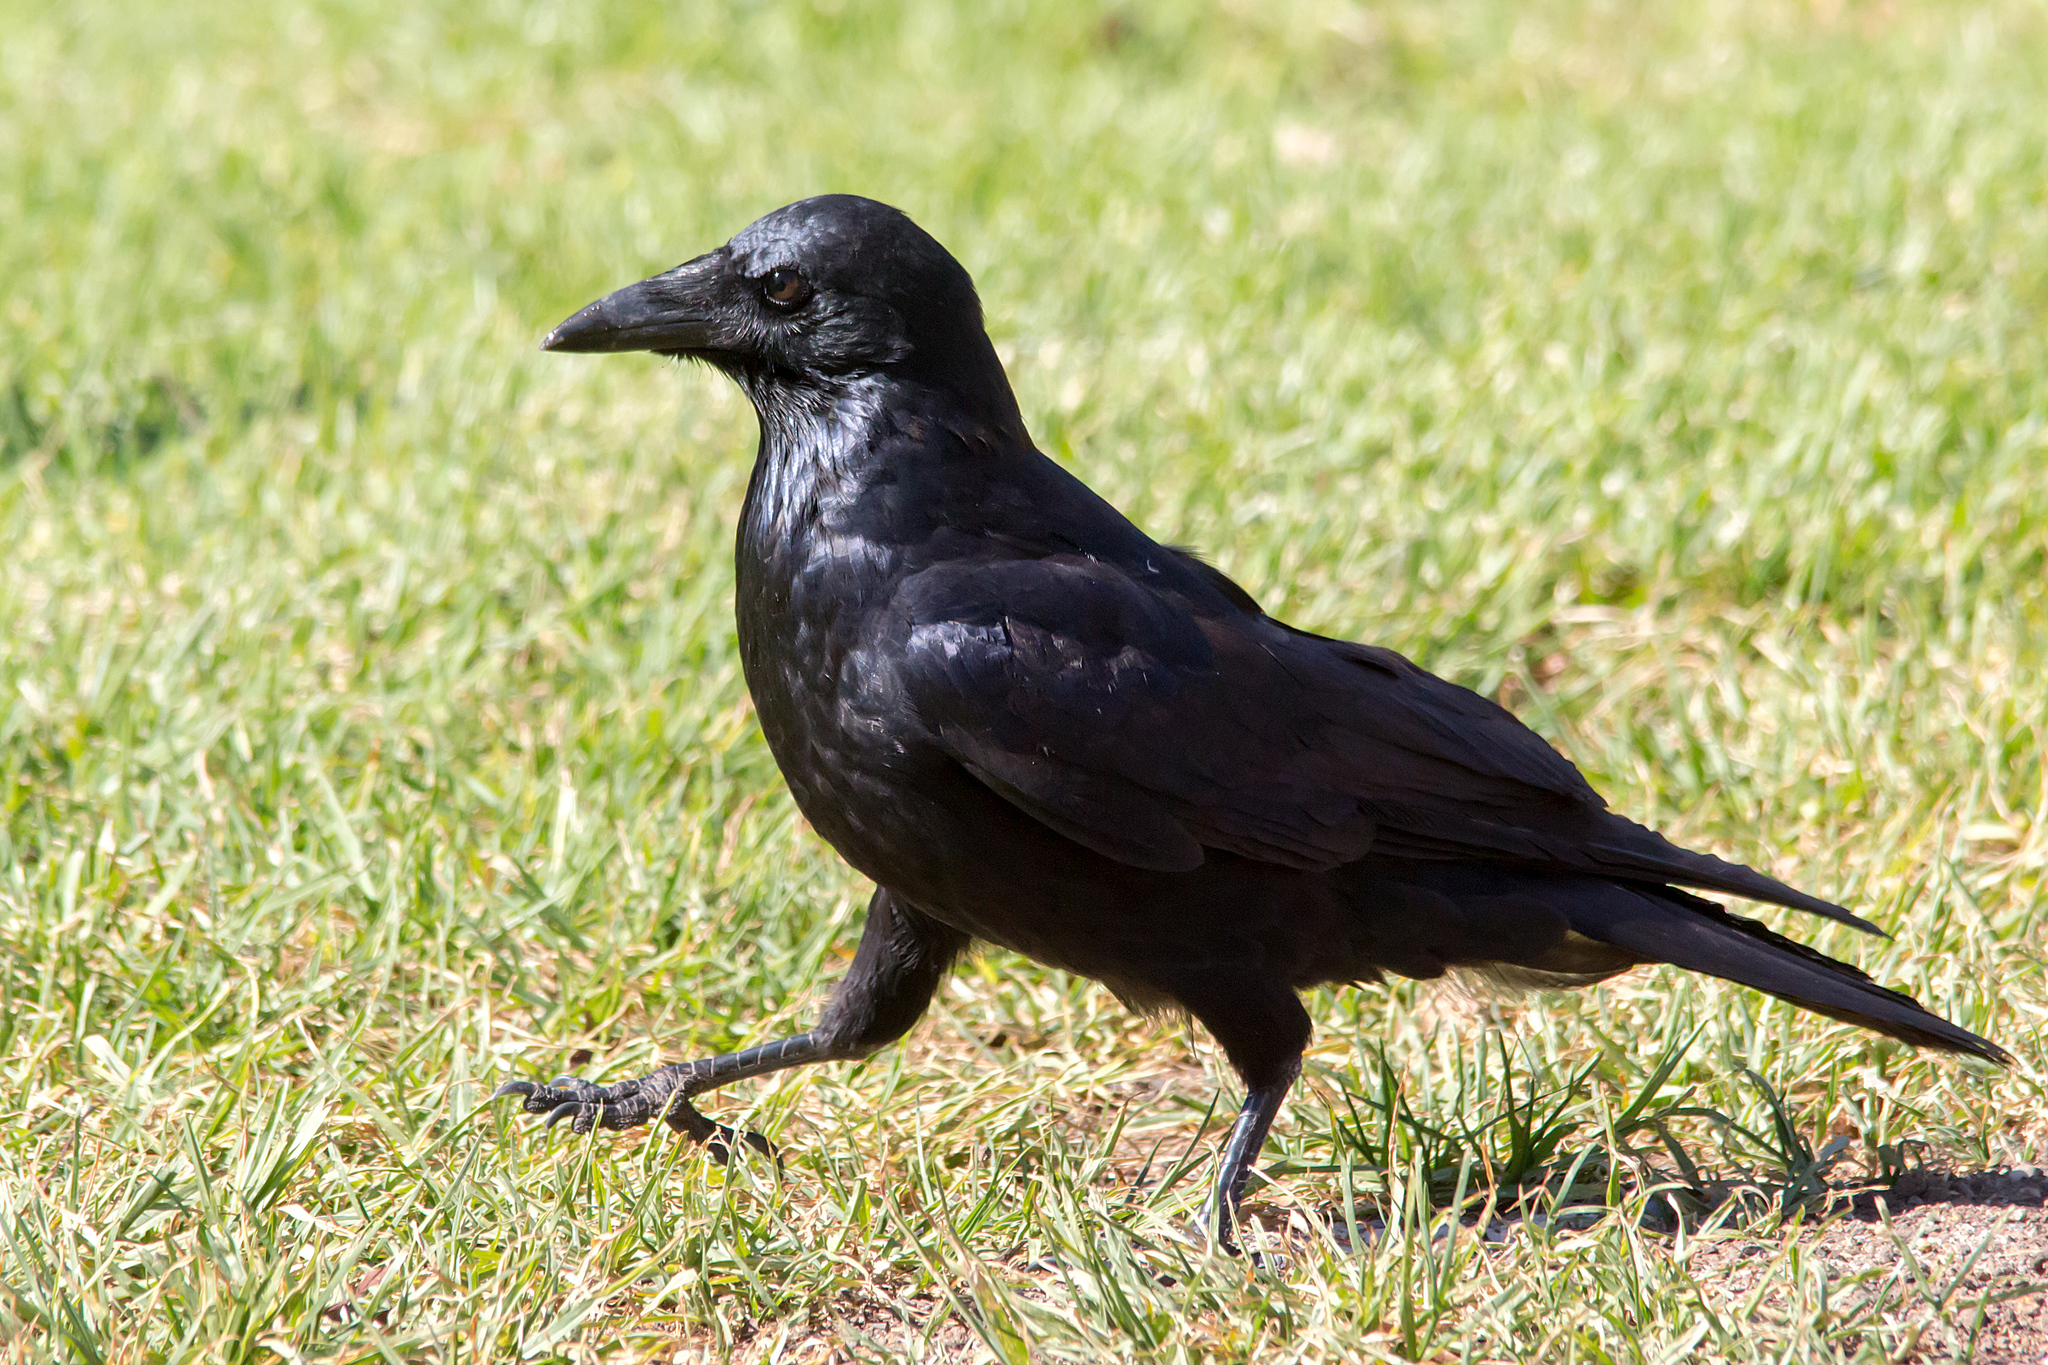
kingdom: Animalia
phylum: Chordata
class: Aves
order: Passeriformes
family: Corvidae
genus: Corvus
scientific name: Corvus mellori
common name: Little raven
